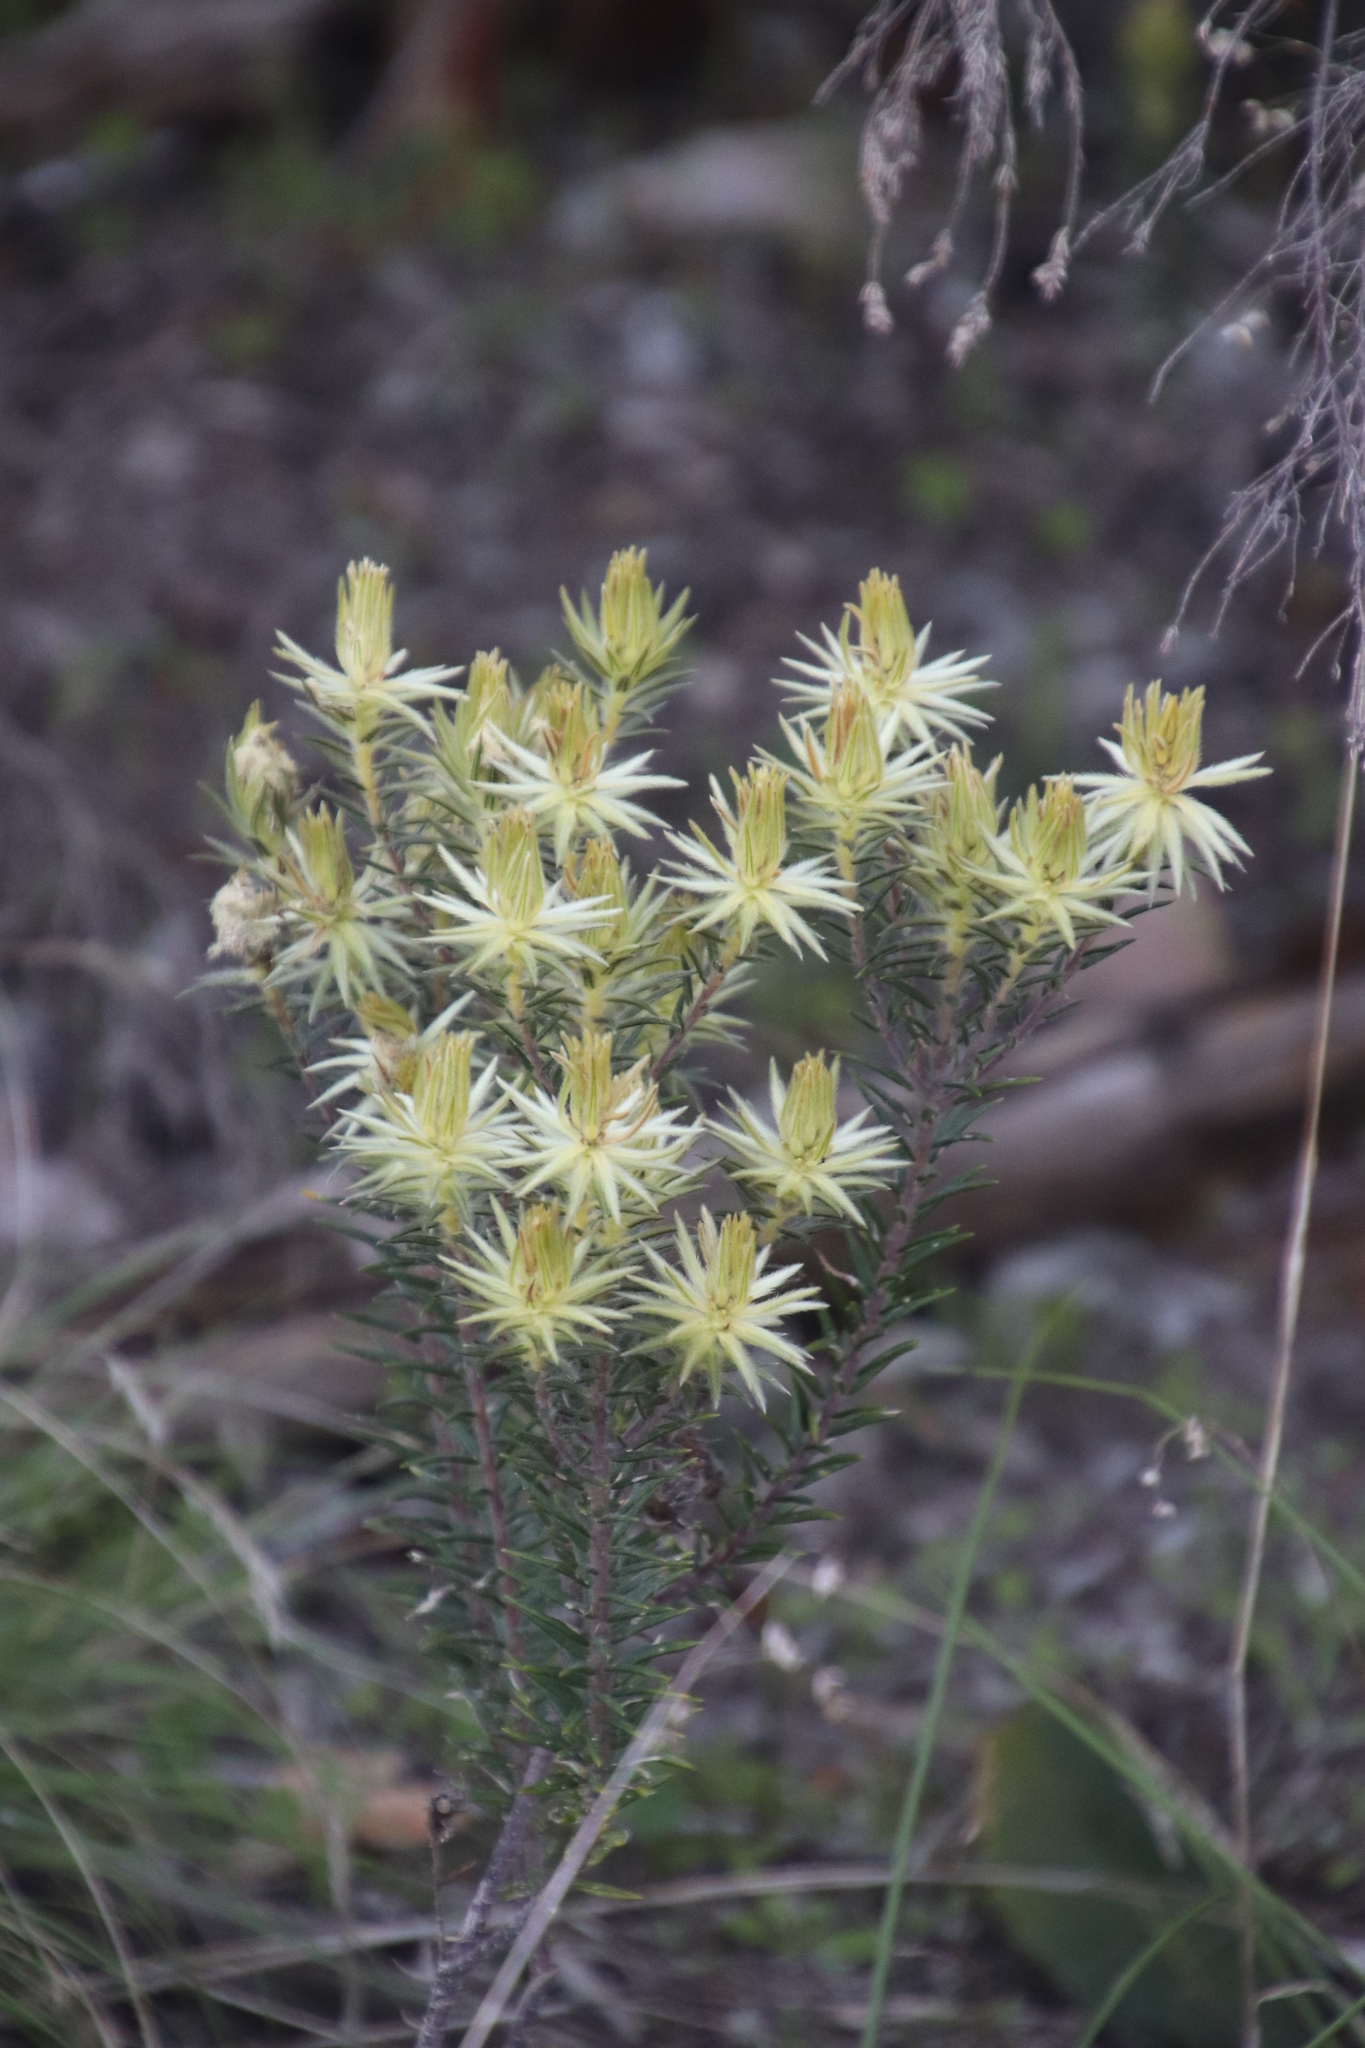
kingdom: Plantae
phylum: Tracheophyta
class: Magnoliopsida
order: Rosales
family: Rhamnaceae
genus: Phylica
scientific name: Phylica pubescens
